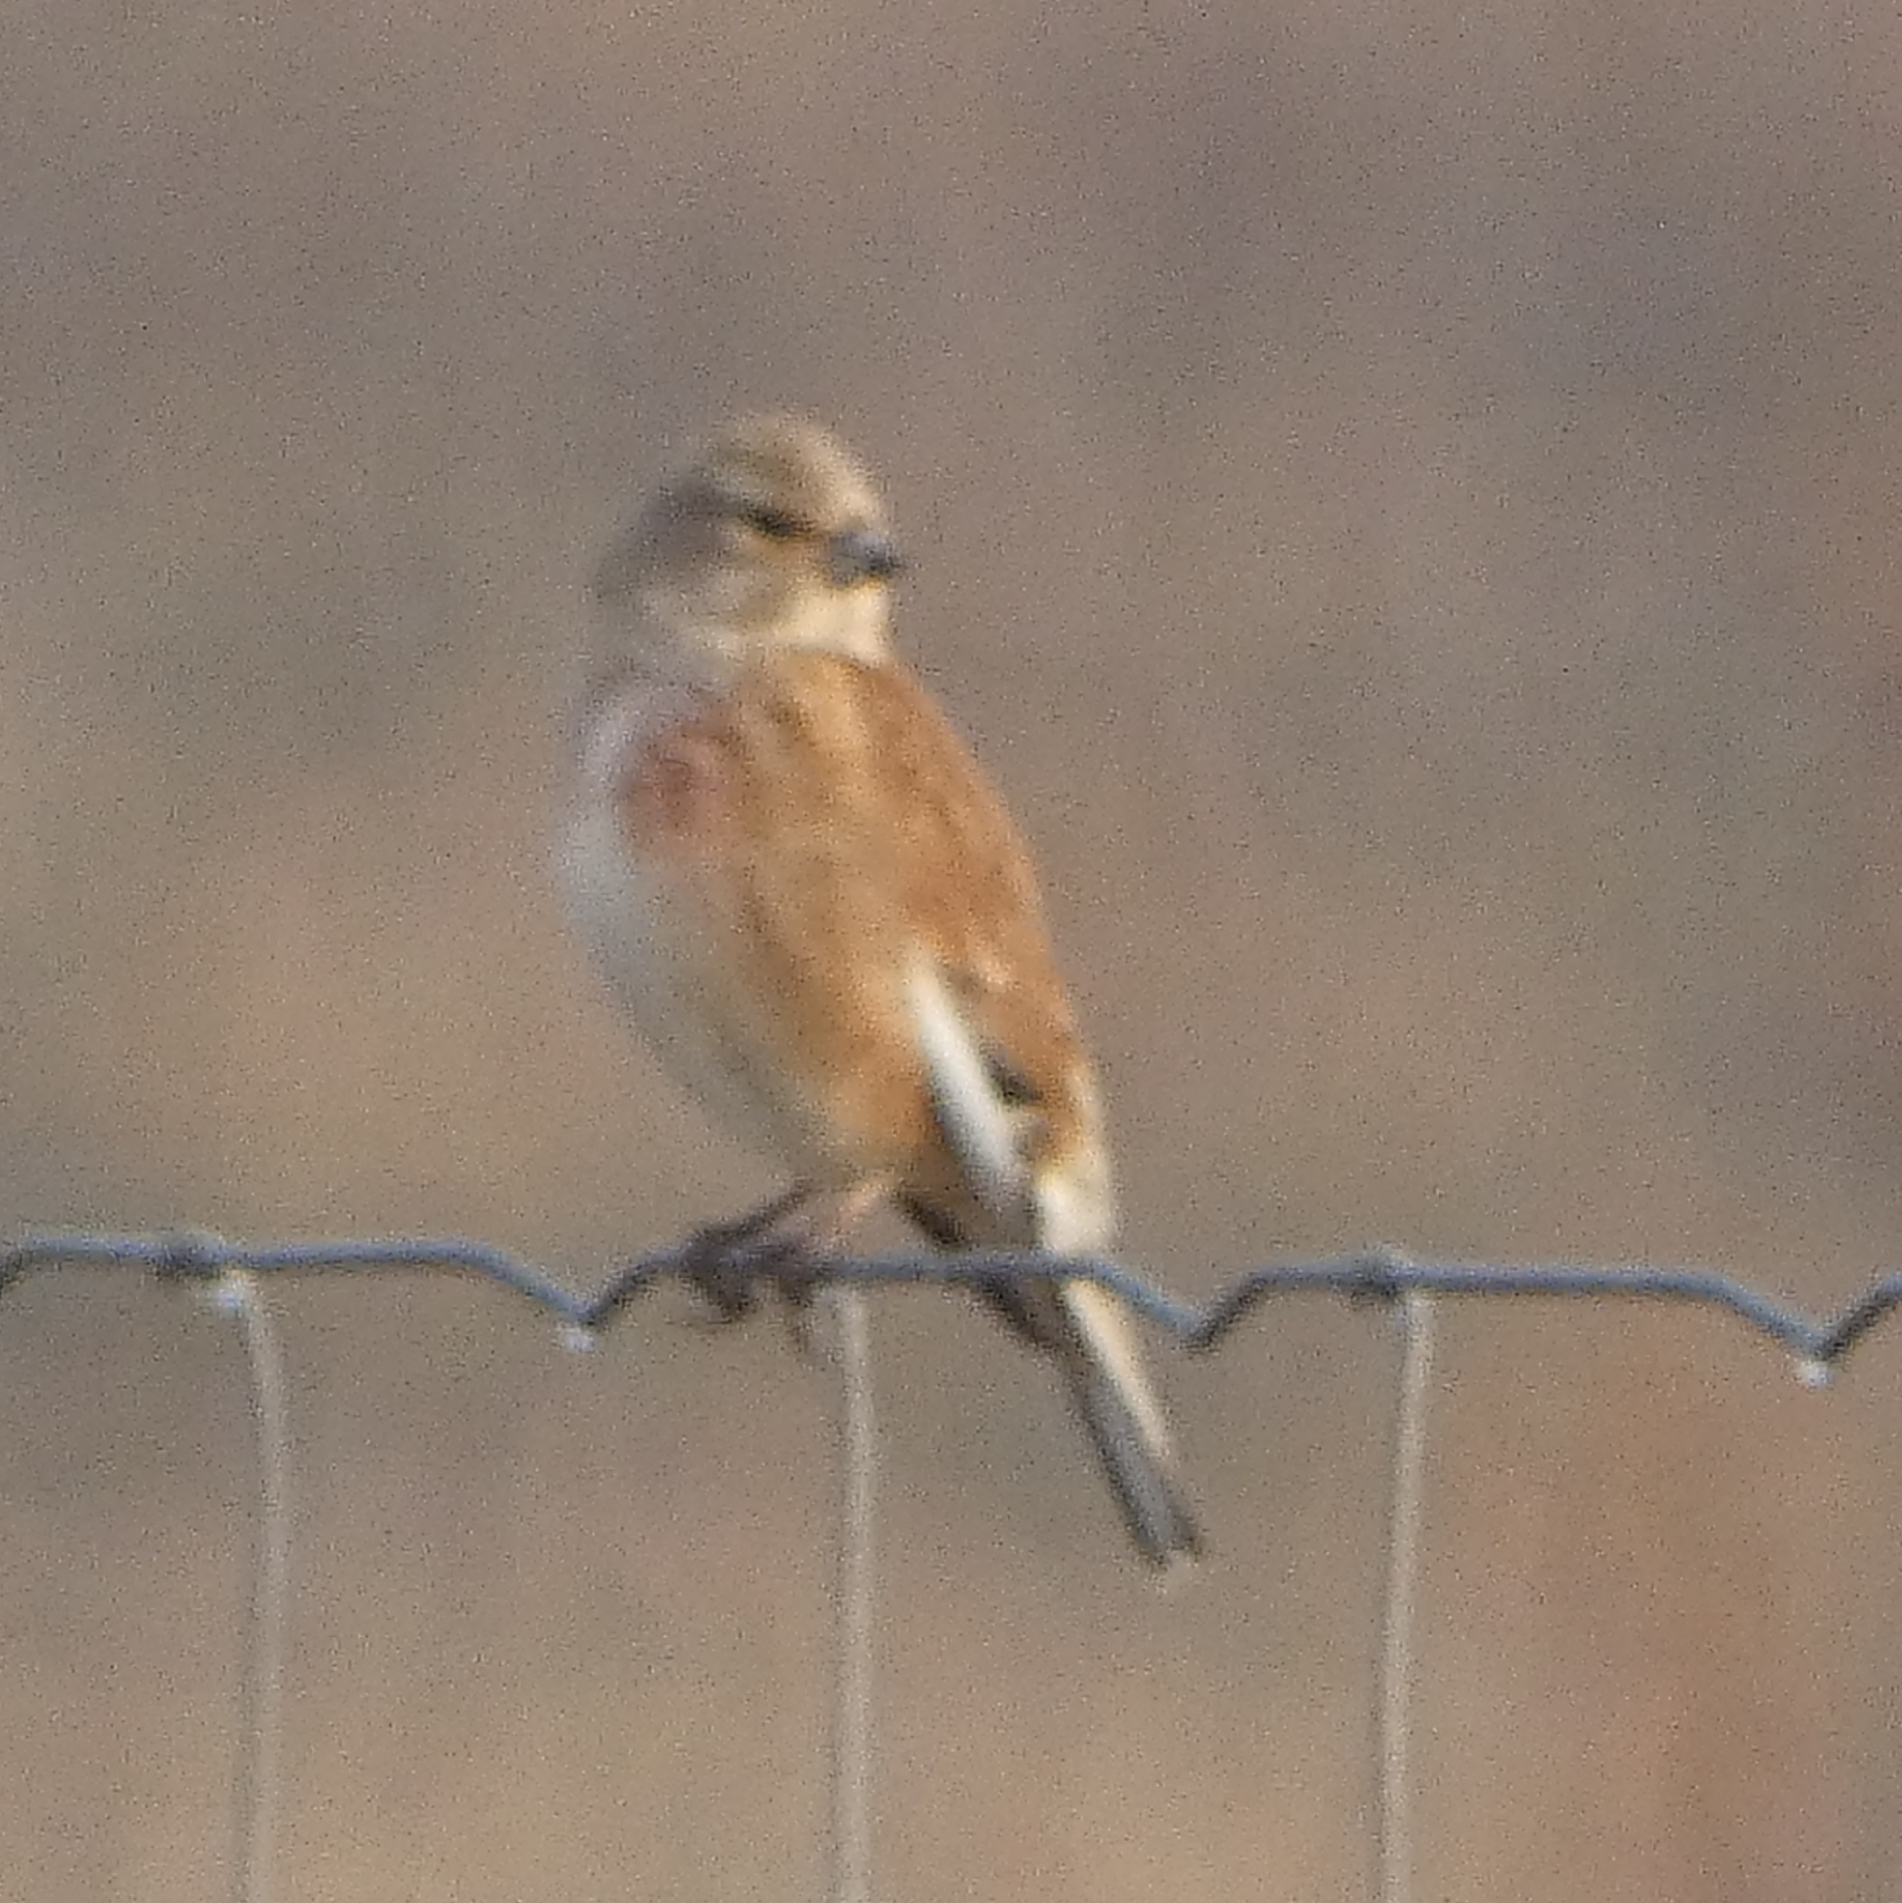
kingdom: Animalia
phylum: Chordata
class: Aves
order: Passeriformes
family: Fringillidae
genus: Linaria
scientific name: Linaria cannabina
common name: Common linnet
